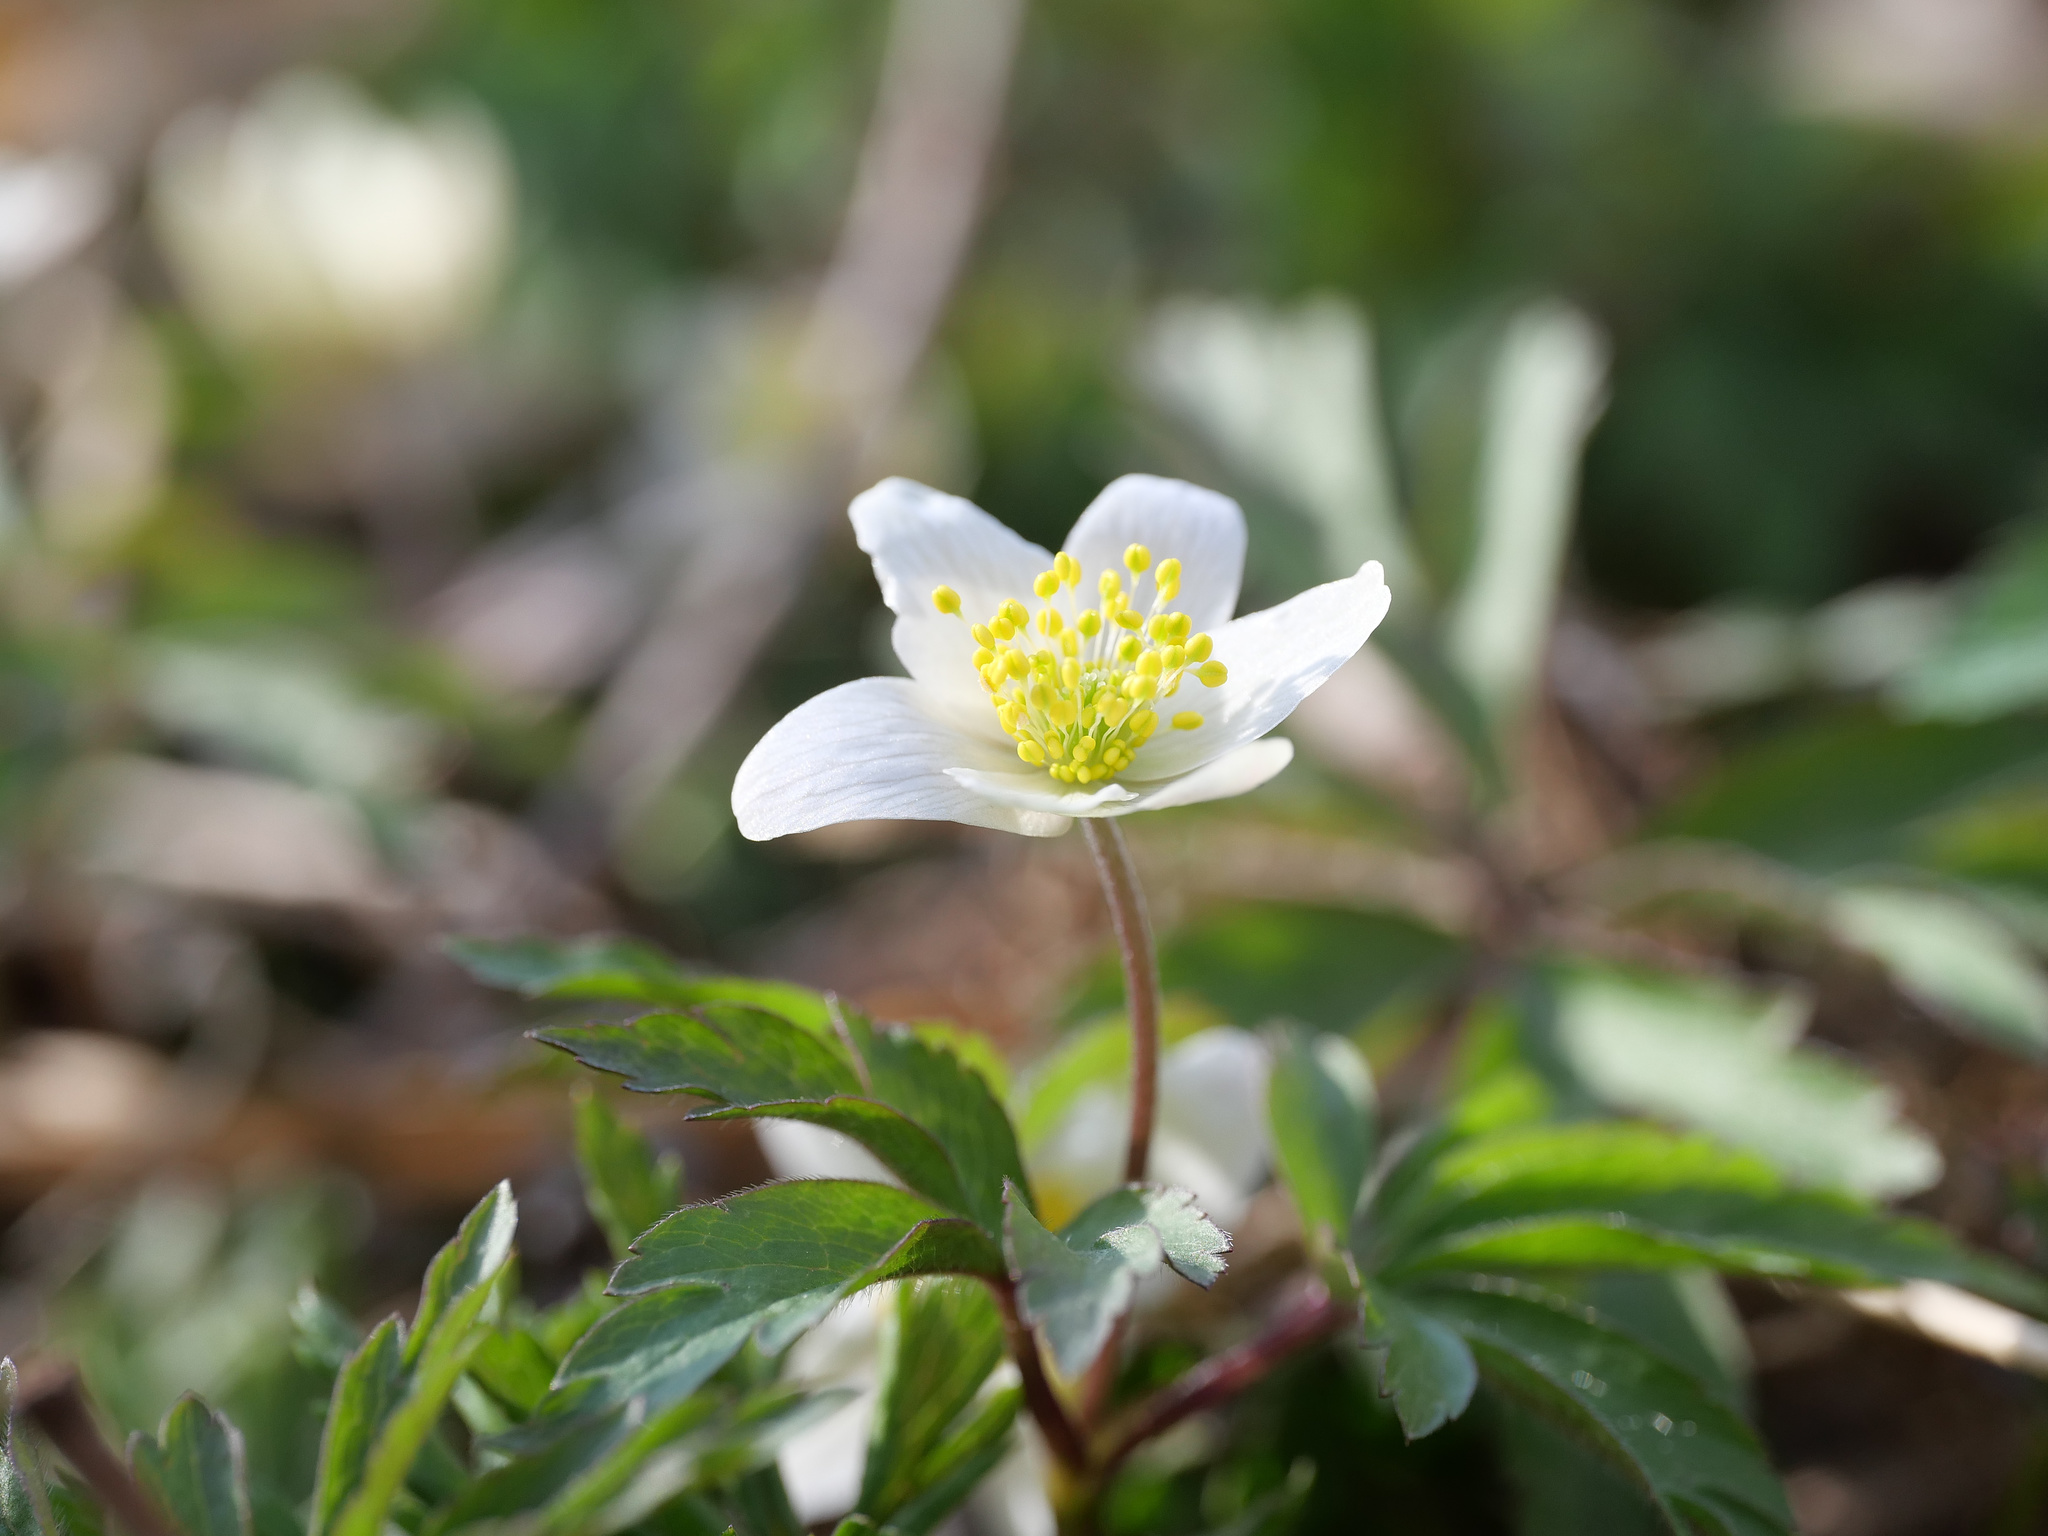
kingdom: Plantae
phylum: Tracheophyta
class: Magnoliopsida
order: Ranunculales
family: Ranunculaceae
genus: Anemone
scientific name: Anemone nemorosa
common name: Wood anemone
